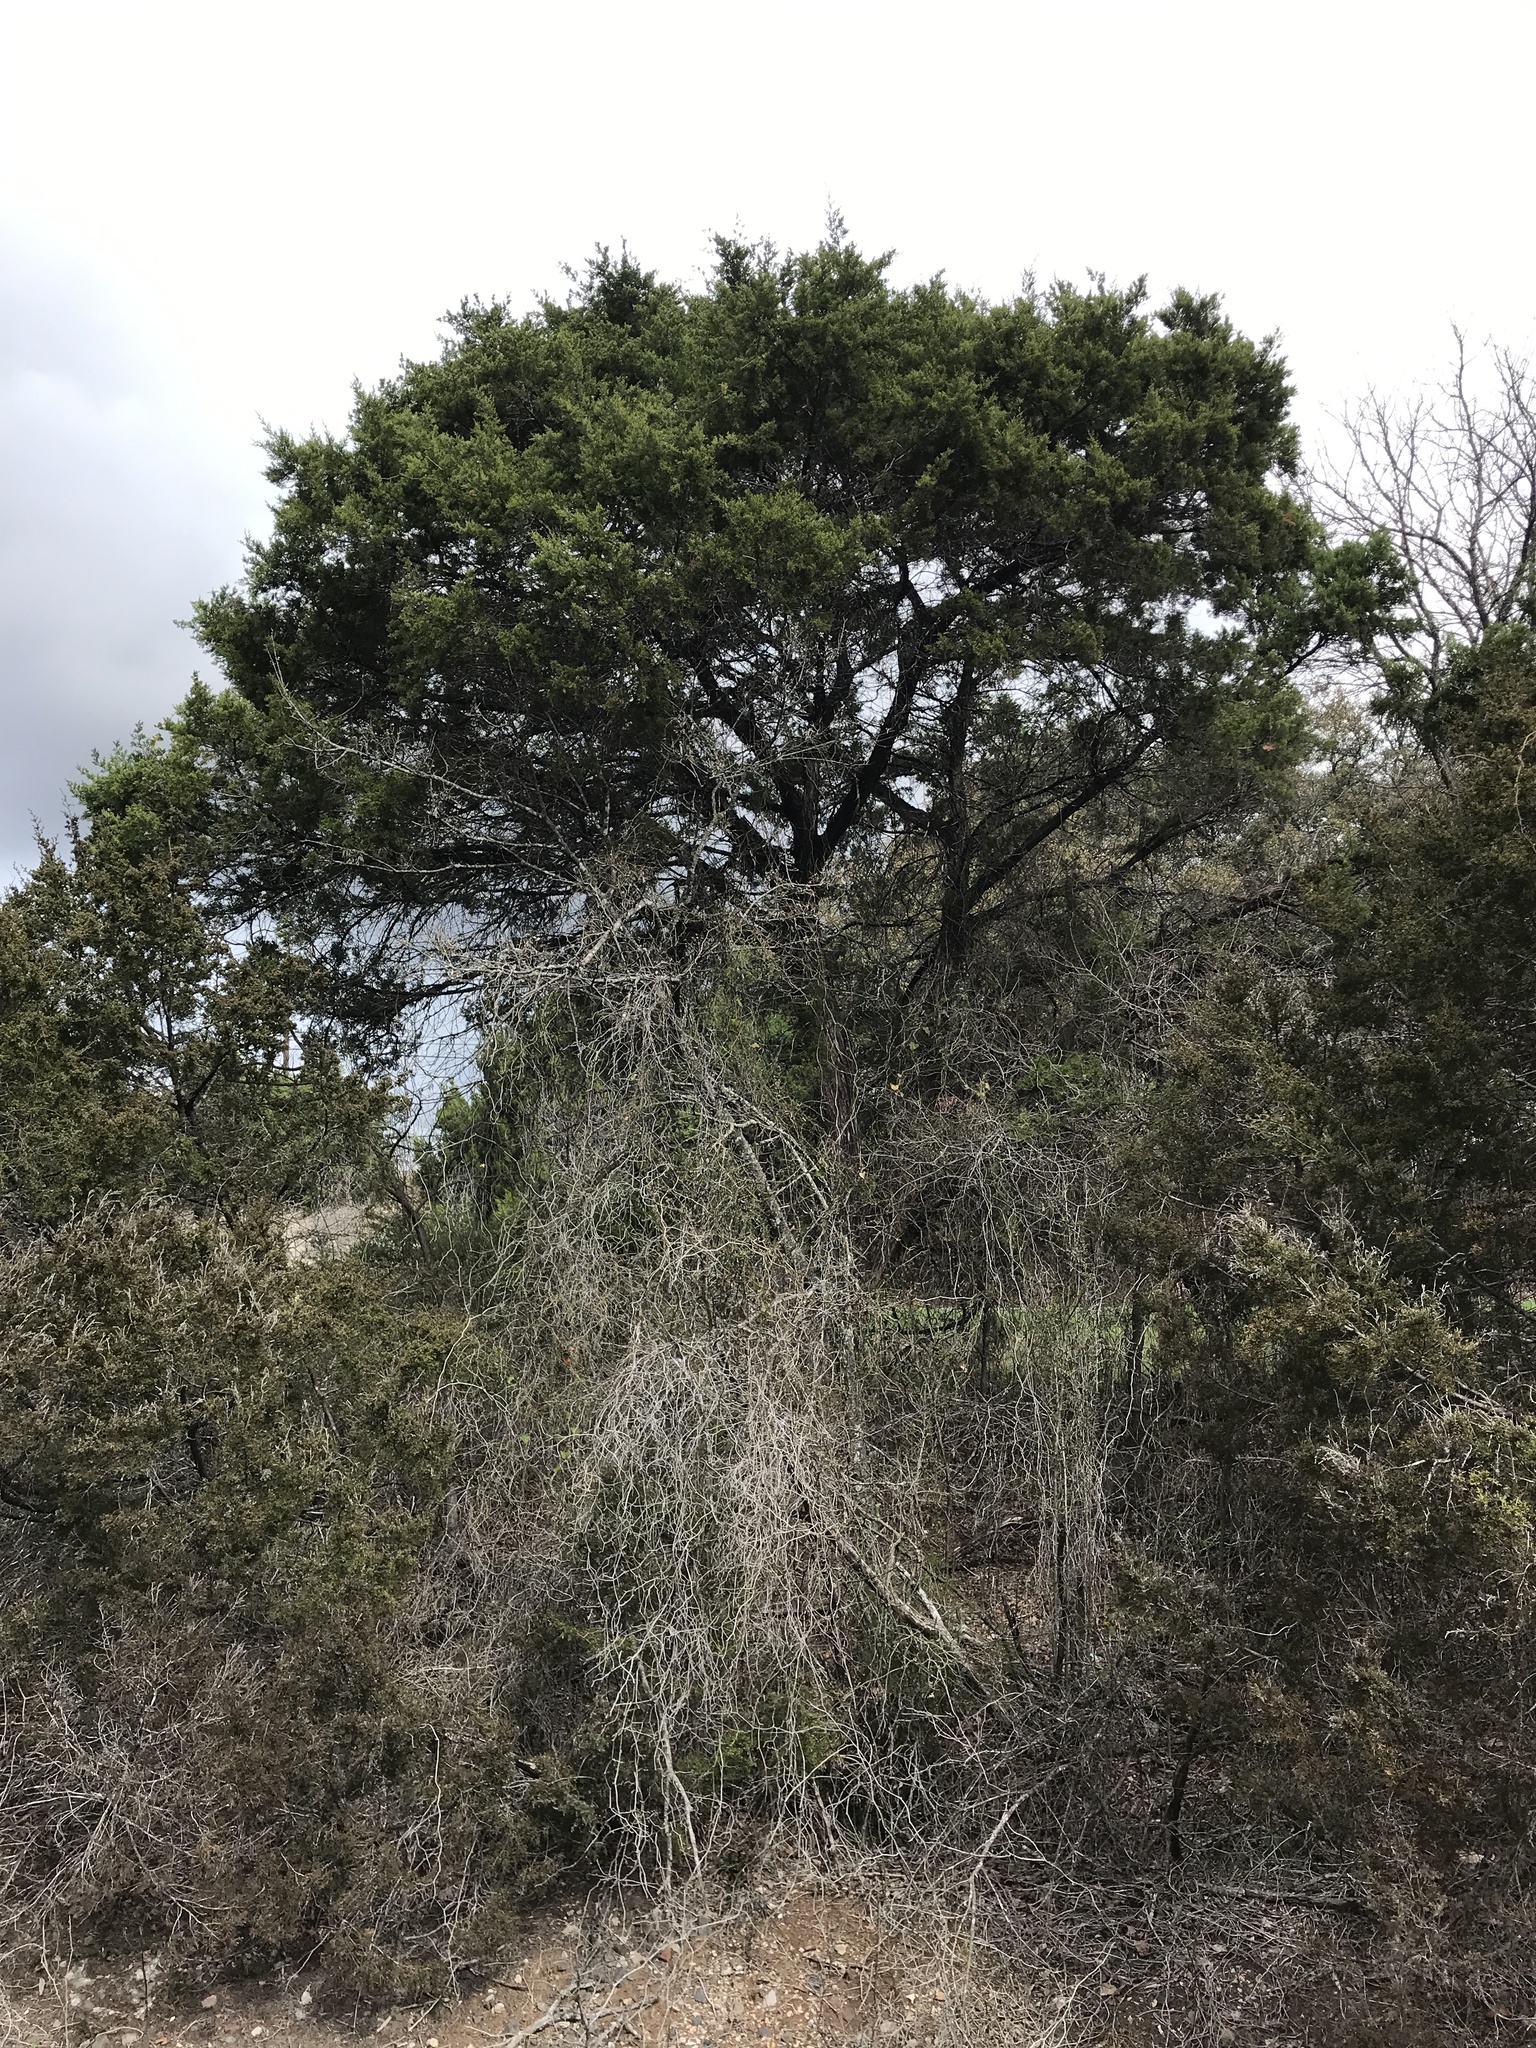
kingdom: Plantae
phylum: Tracheophyta
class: Pinopsida
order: Pinales
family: Cupressaceae
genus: Juniperus
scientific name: Juniperus ashei
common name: Mexican juniper
